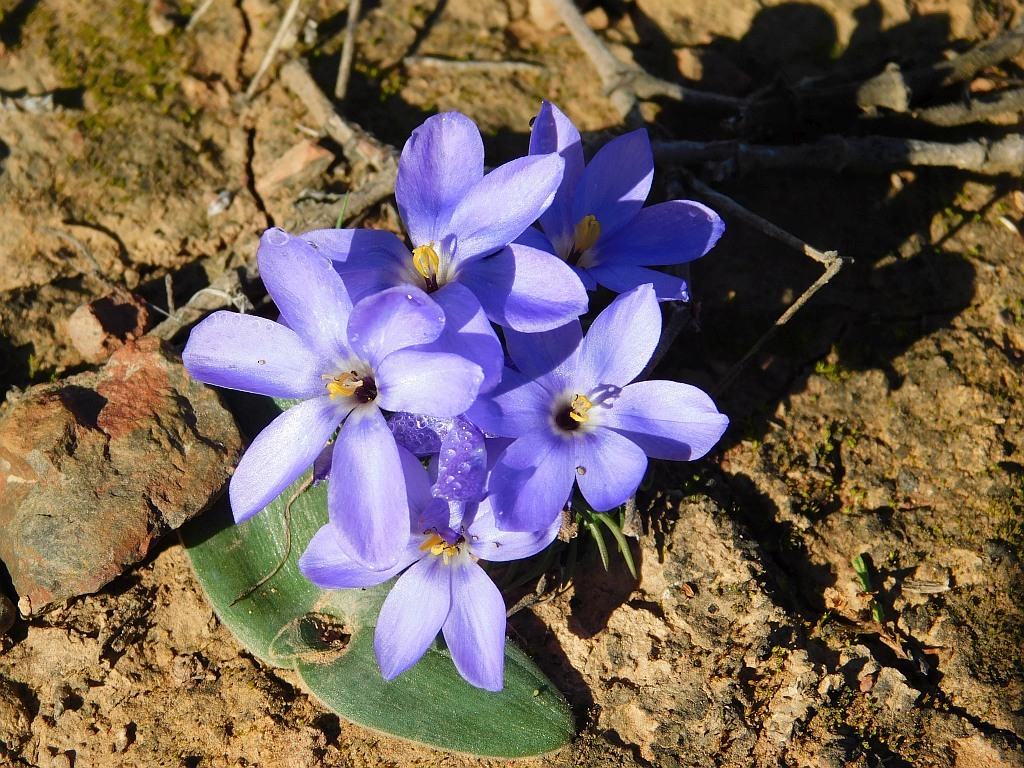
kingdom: Plantae
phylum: Tracheophyta
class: Liliopsida
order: Asparagales
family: Iridaceae
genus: Syringodea
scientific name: Syringodea longituba
